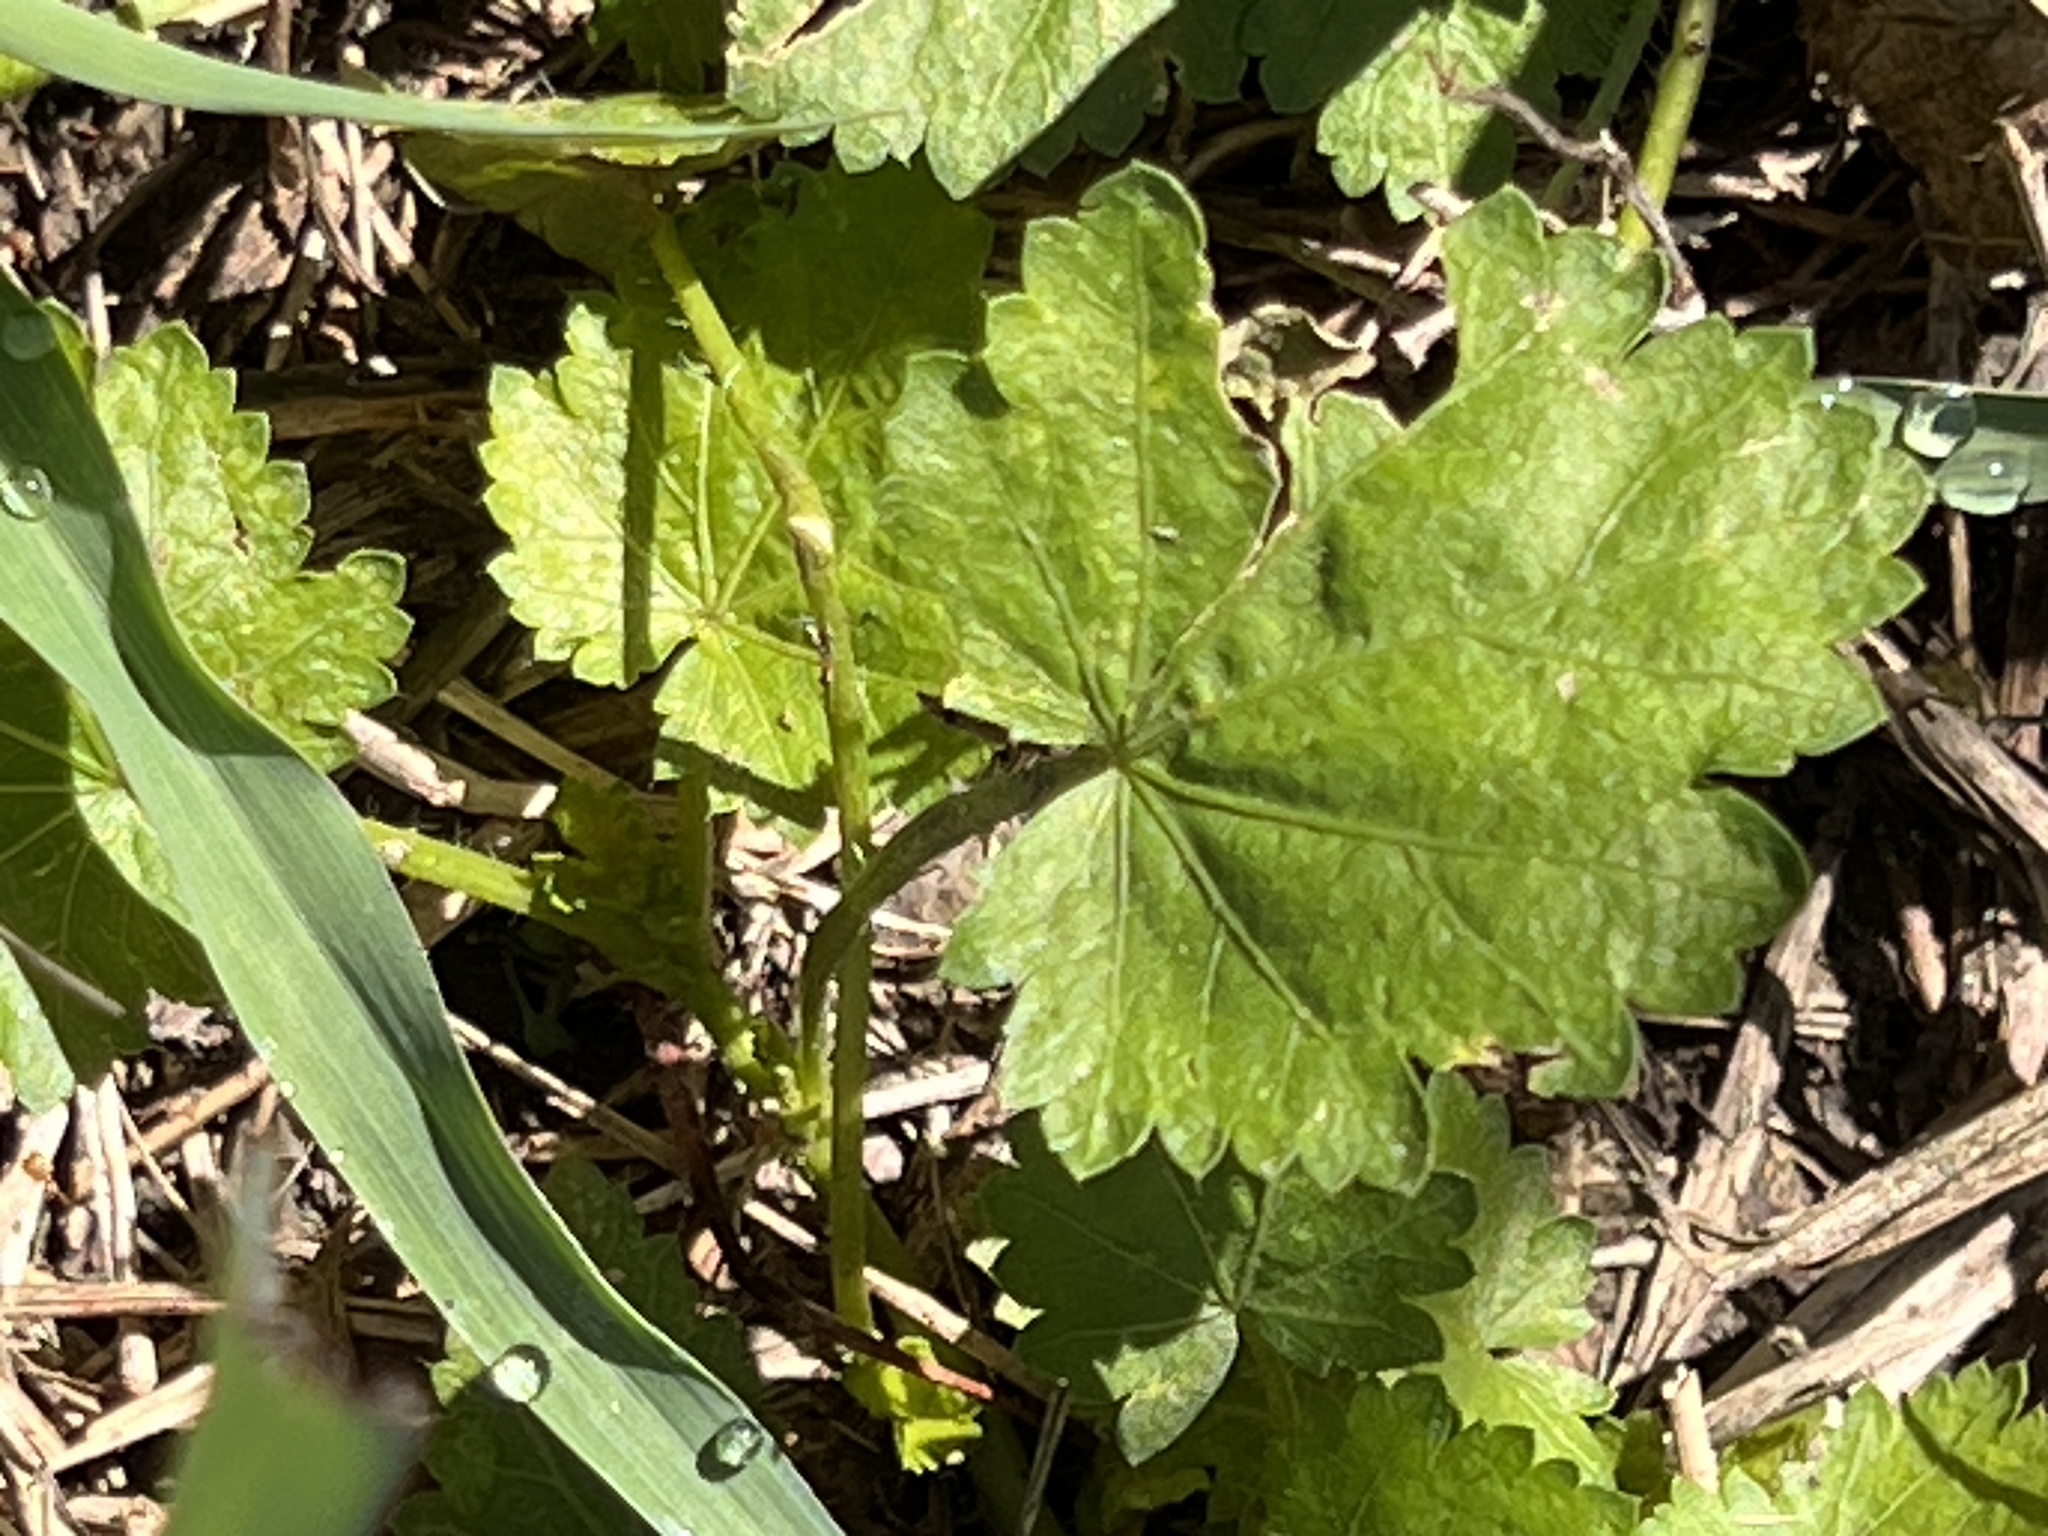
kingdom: Plantae
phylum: Tracheophyta
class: Magnoliopsida
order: Malvales
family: Malvaceae
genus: Modiola
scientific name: Modiola caroliniana
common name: Carolina bristlemallow
